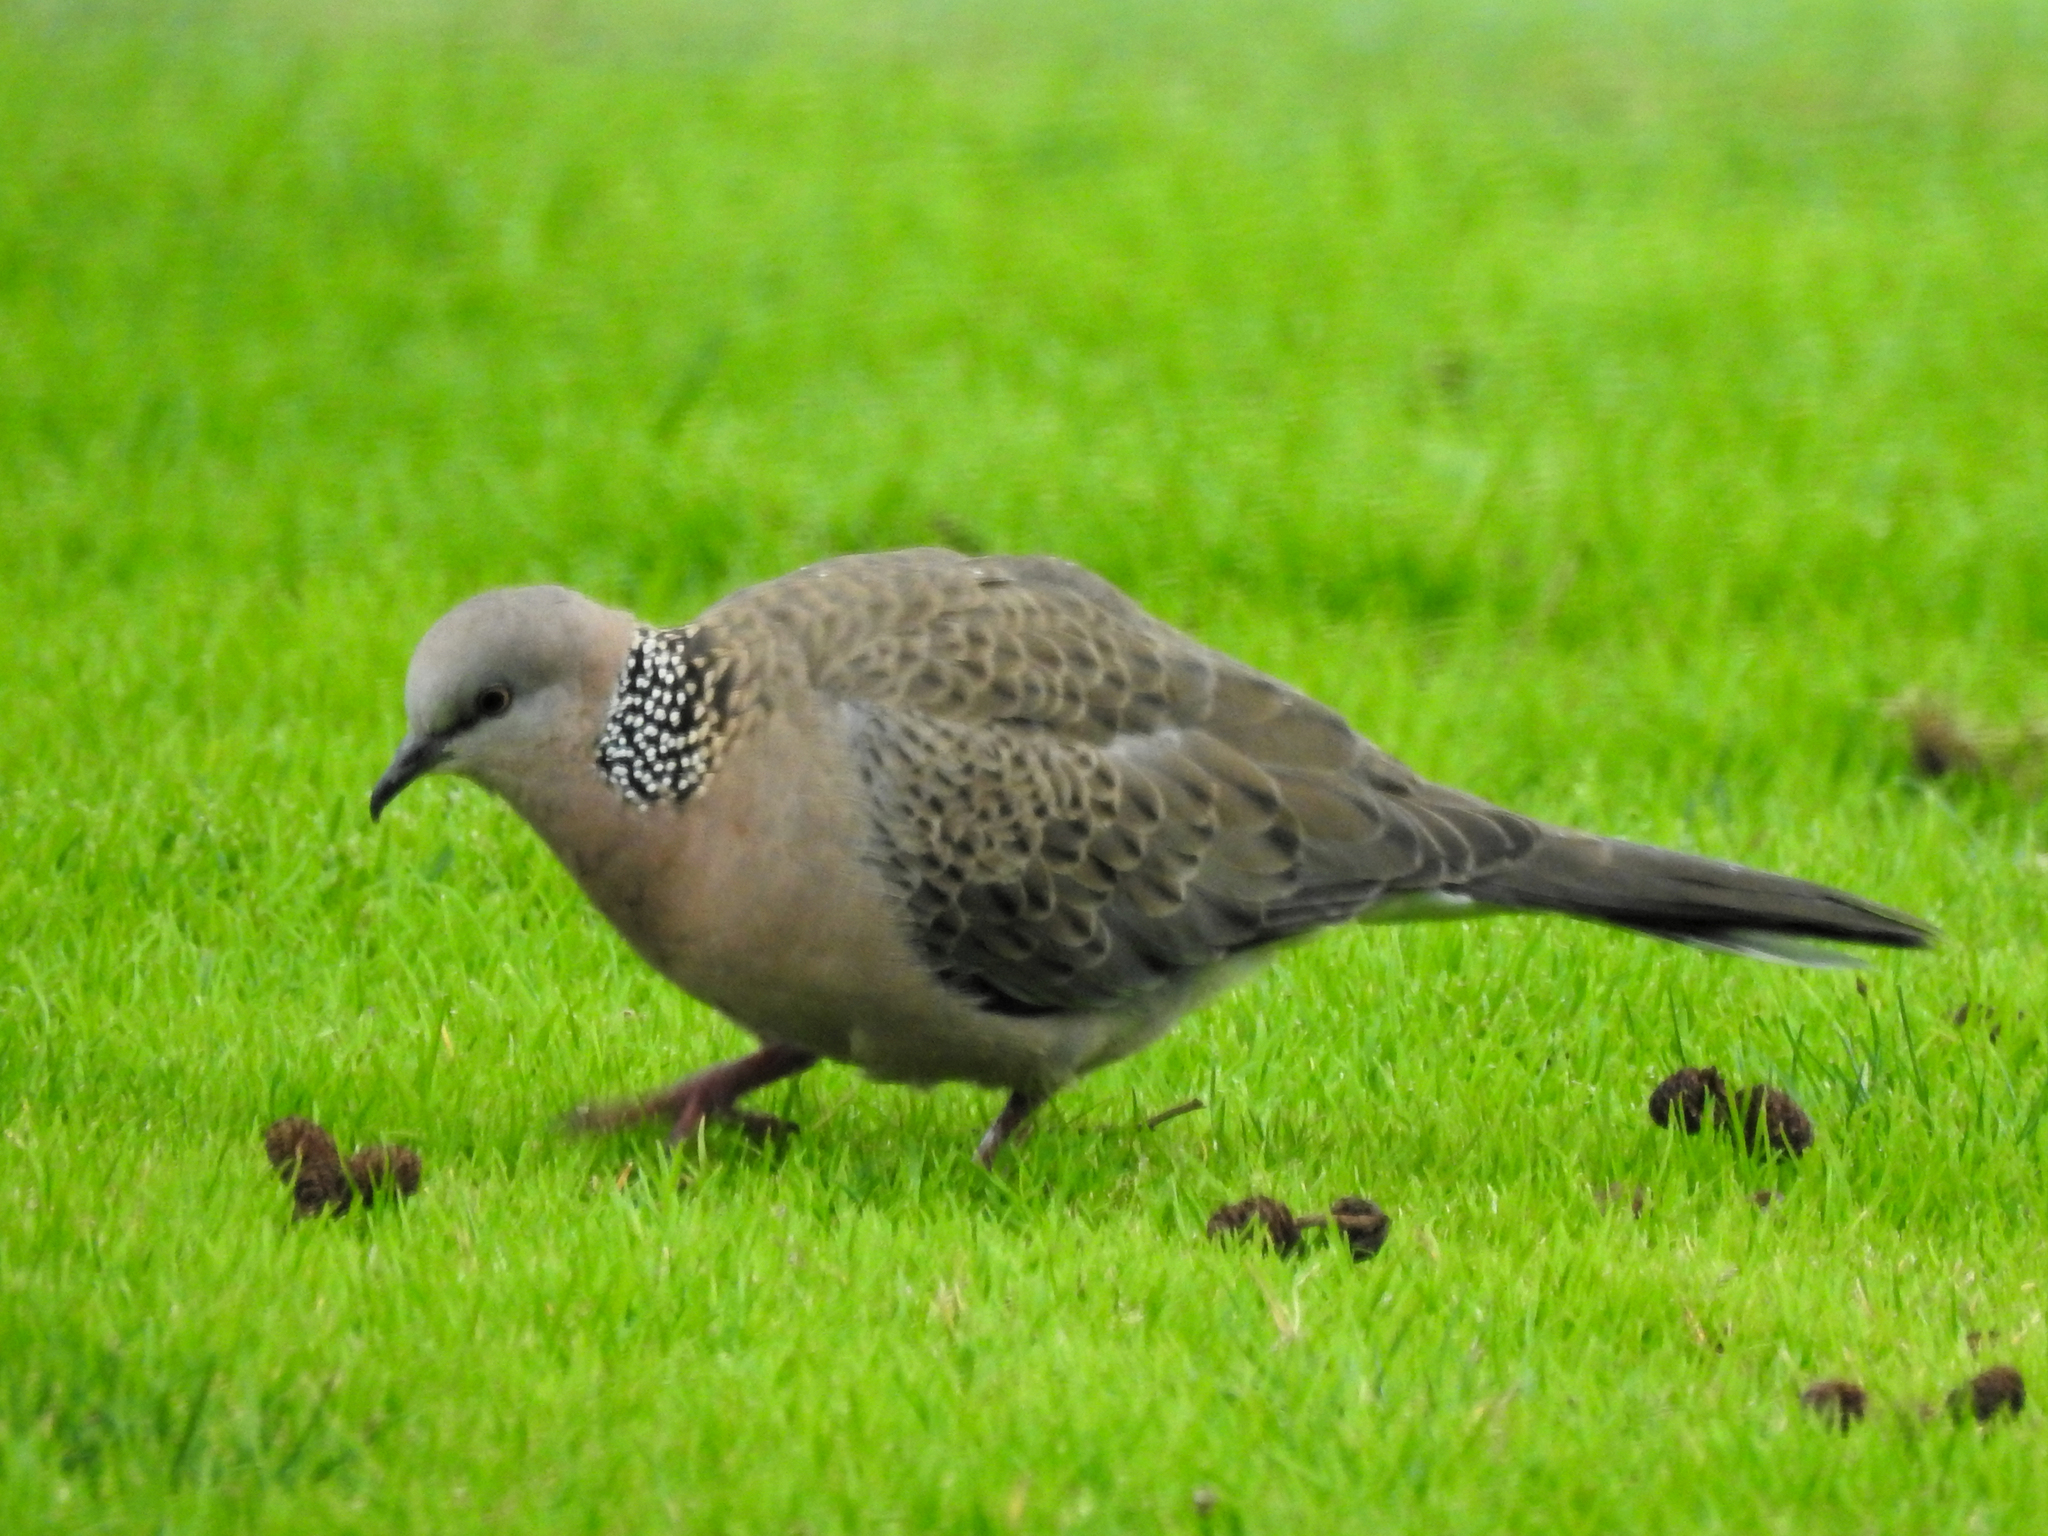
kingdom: Animalia
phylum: Chordata
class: Aves
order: Columbiformes
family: Columbidae
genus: Spilopelia
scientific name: Spilopelia chinensis
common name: Spotted dove
